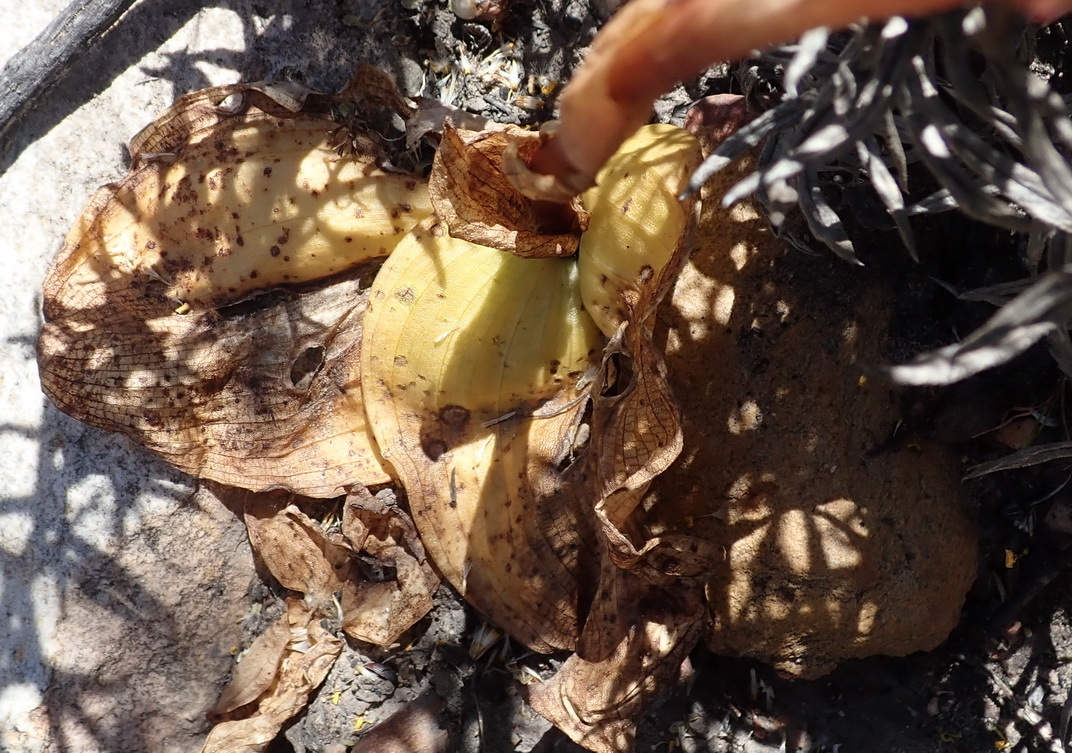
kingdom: Plantae
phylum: Tracheophyta
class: Liliopsida
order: Asparagales
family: Orchidaceae
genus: Satyrium
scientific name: Satyrium pallens
